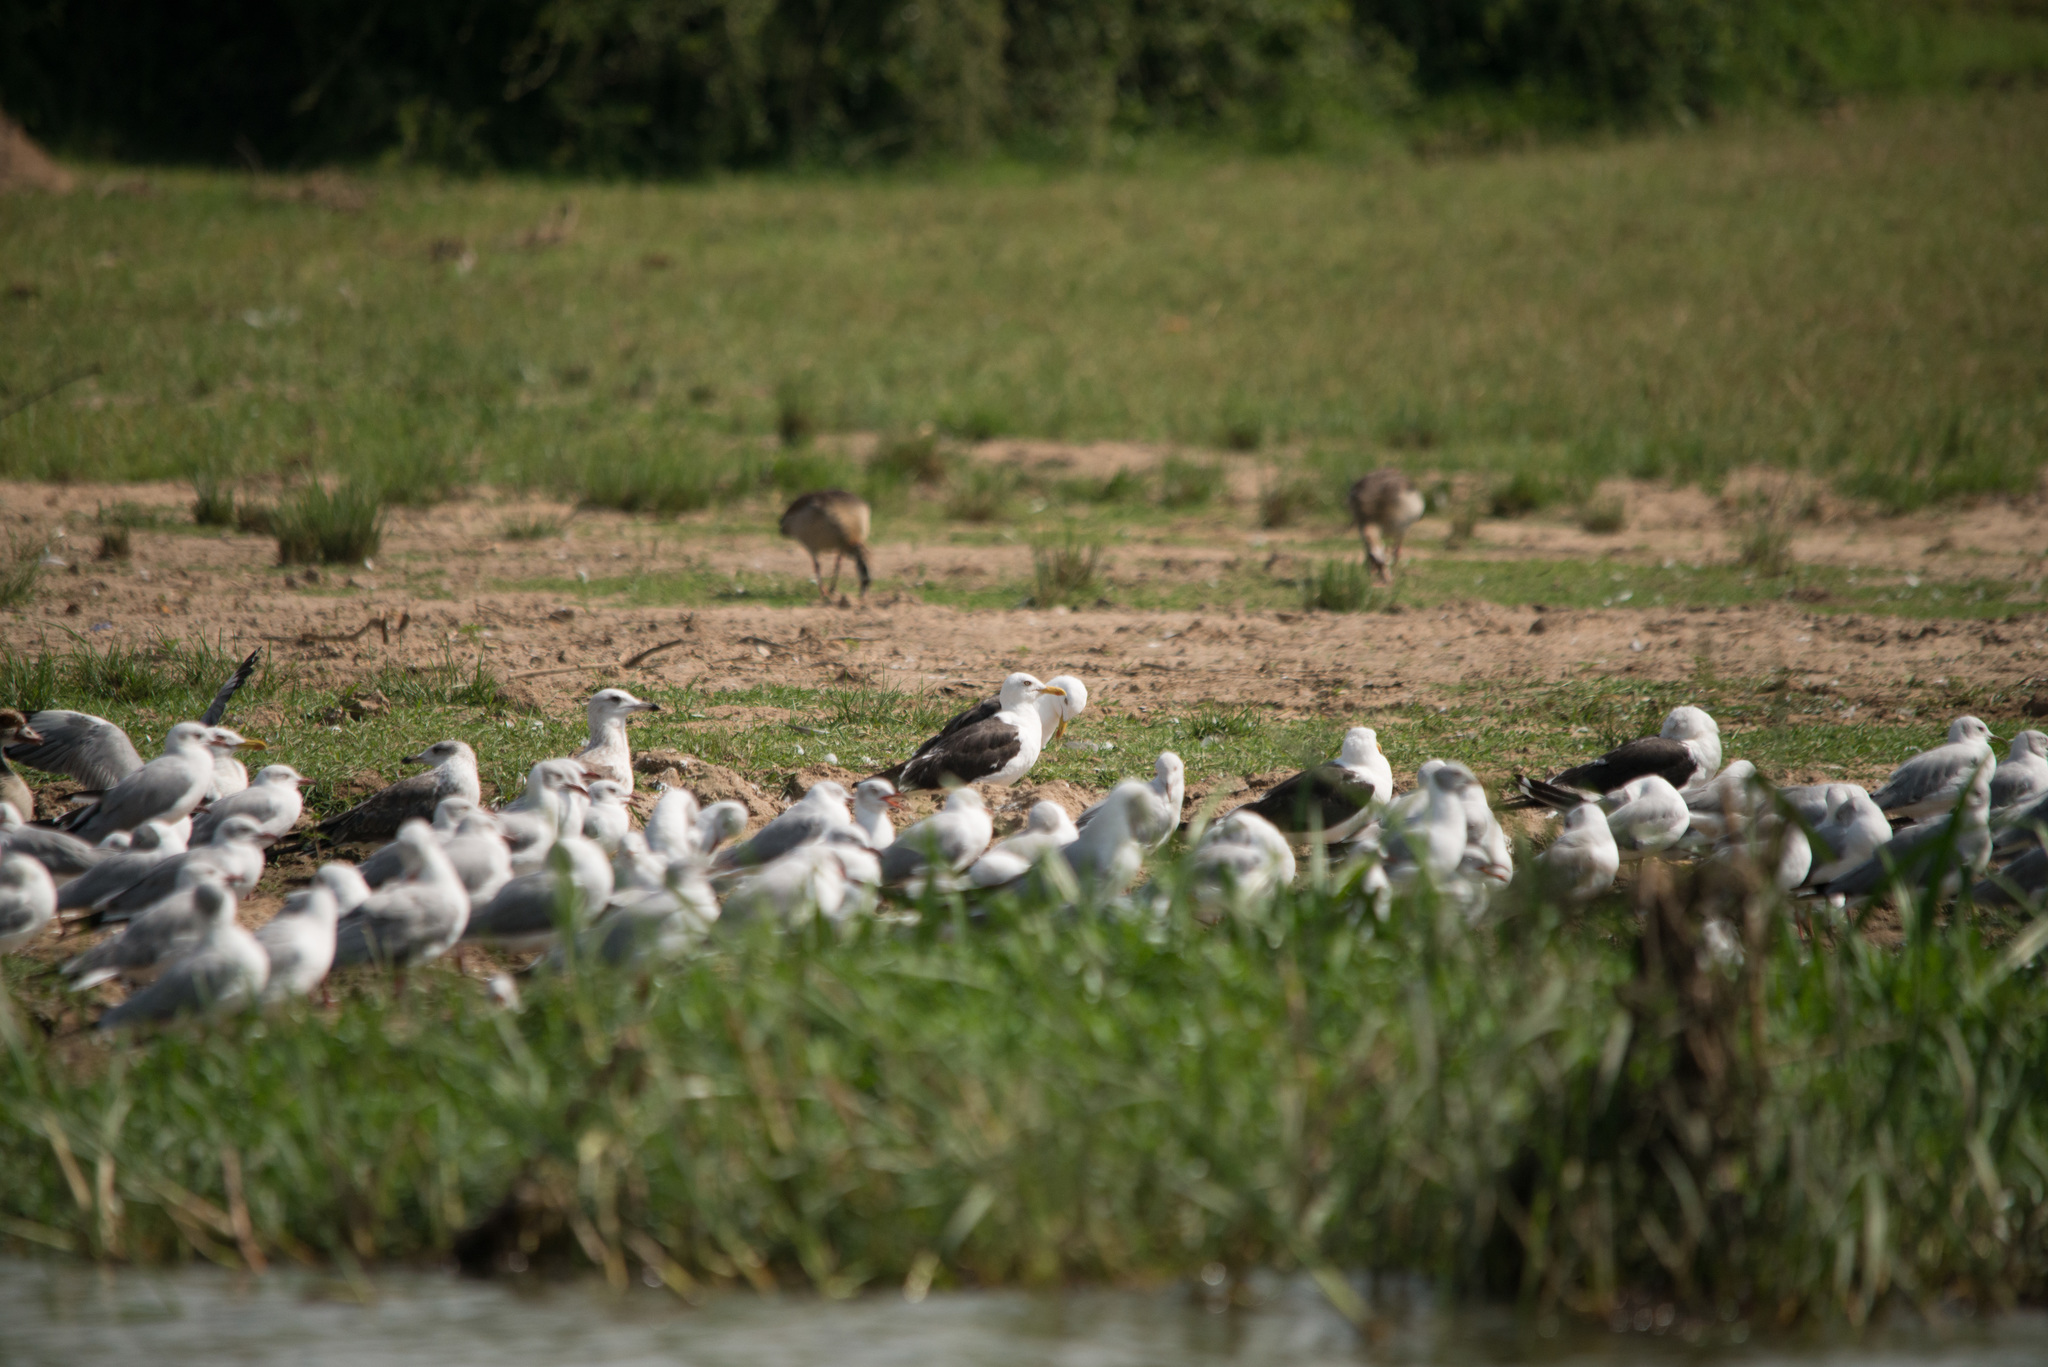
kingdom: Animalia
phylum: Chordata
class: Aves
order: Charadriiformes
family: Laridae
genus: Larus
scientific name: Larus fuscus
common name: Lesser black-backed gull
